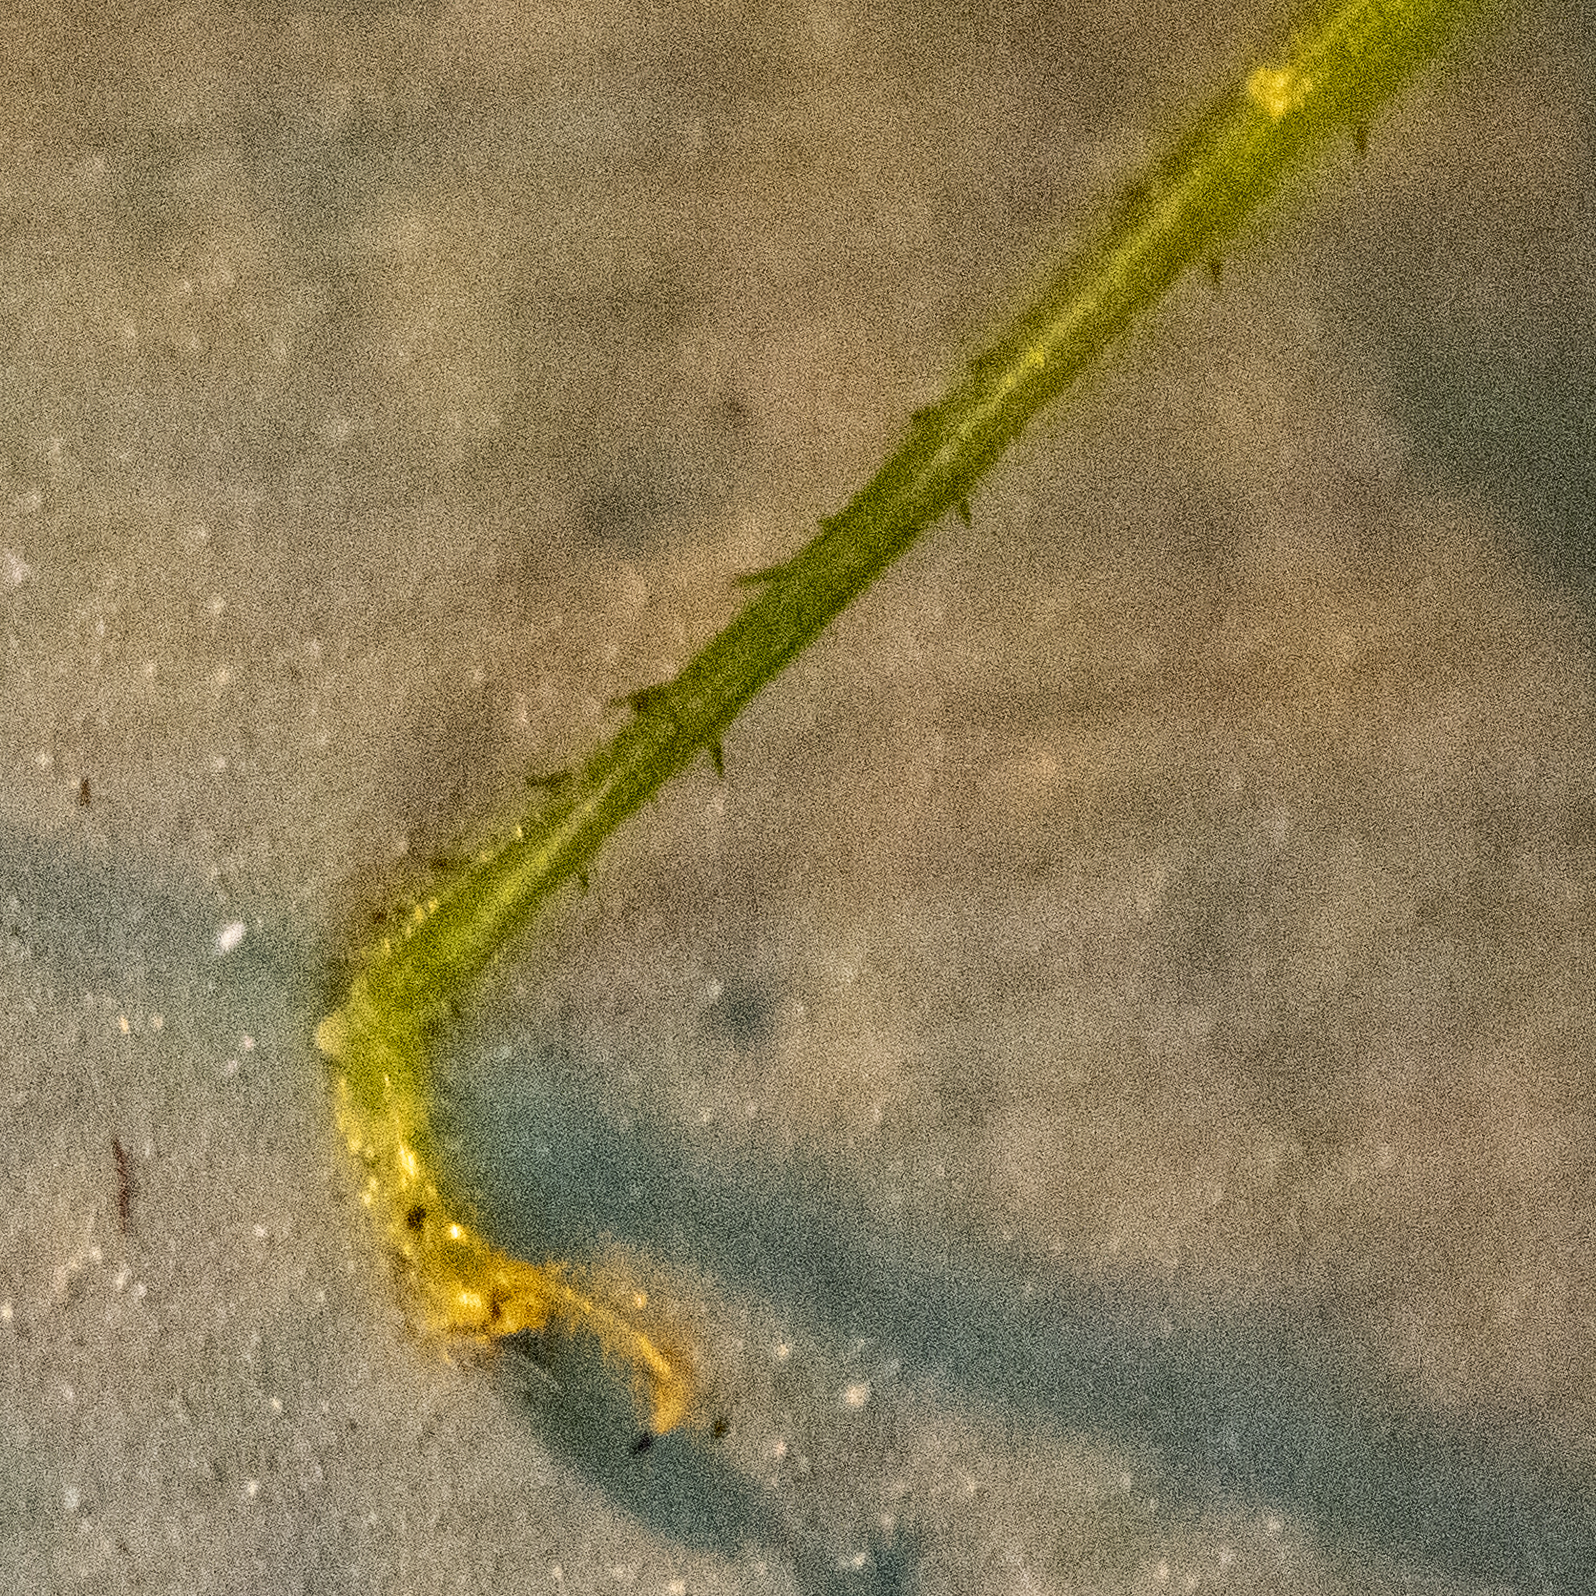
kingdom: Animalia
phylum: Arthropoda
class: Insecta
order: Orthoptera
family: Tettigoniidae
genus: Scudderia
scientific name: Scudderia septentrionalis
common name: Northern bush-katydid
